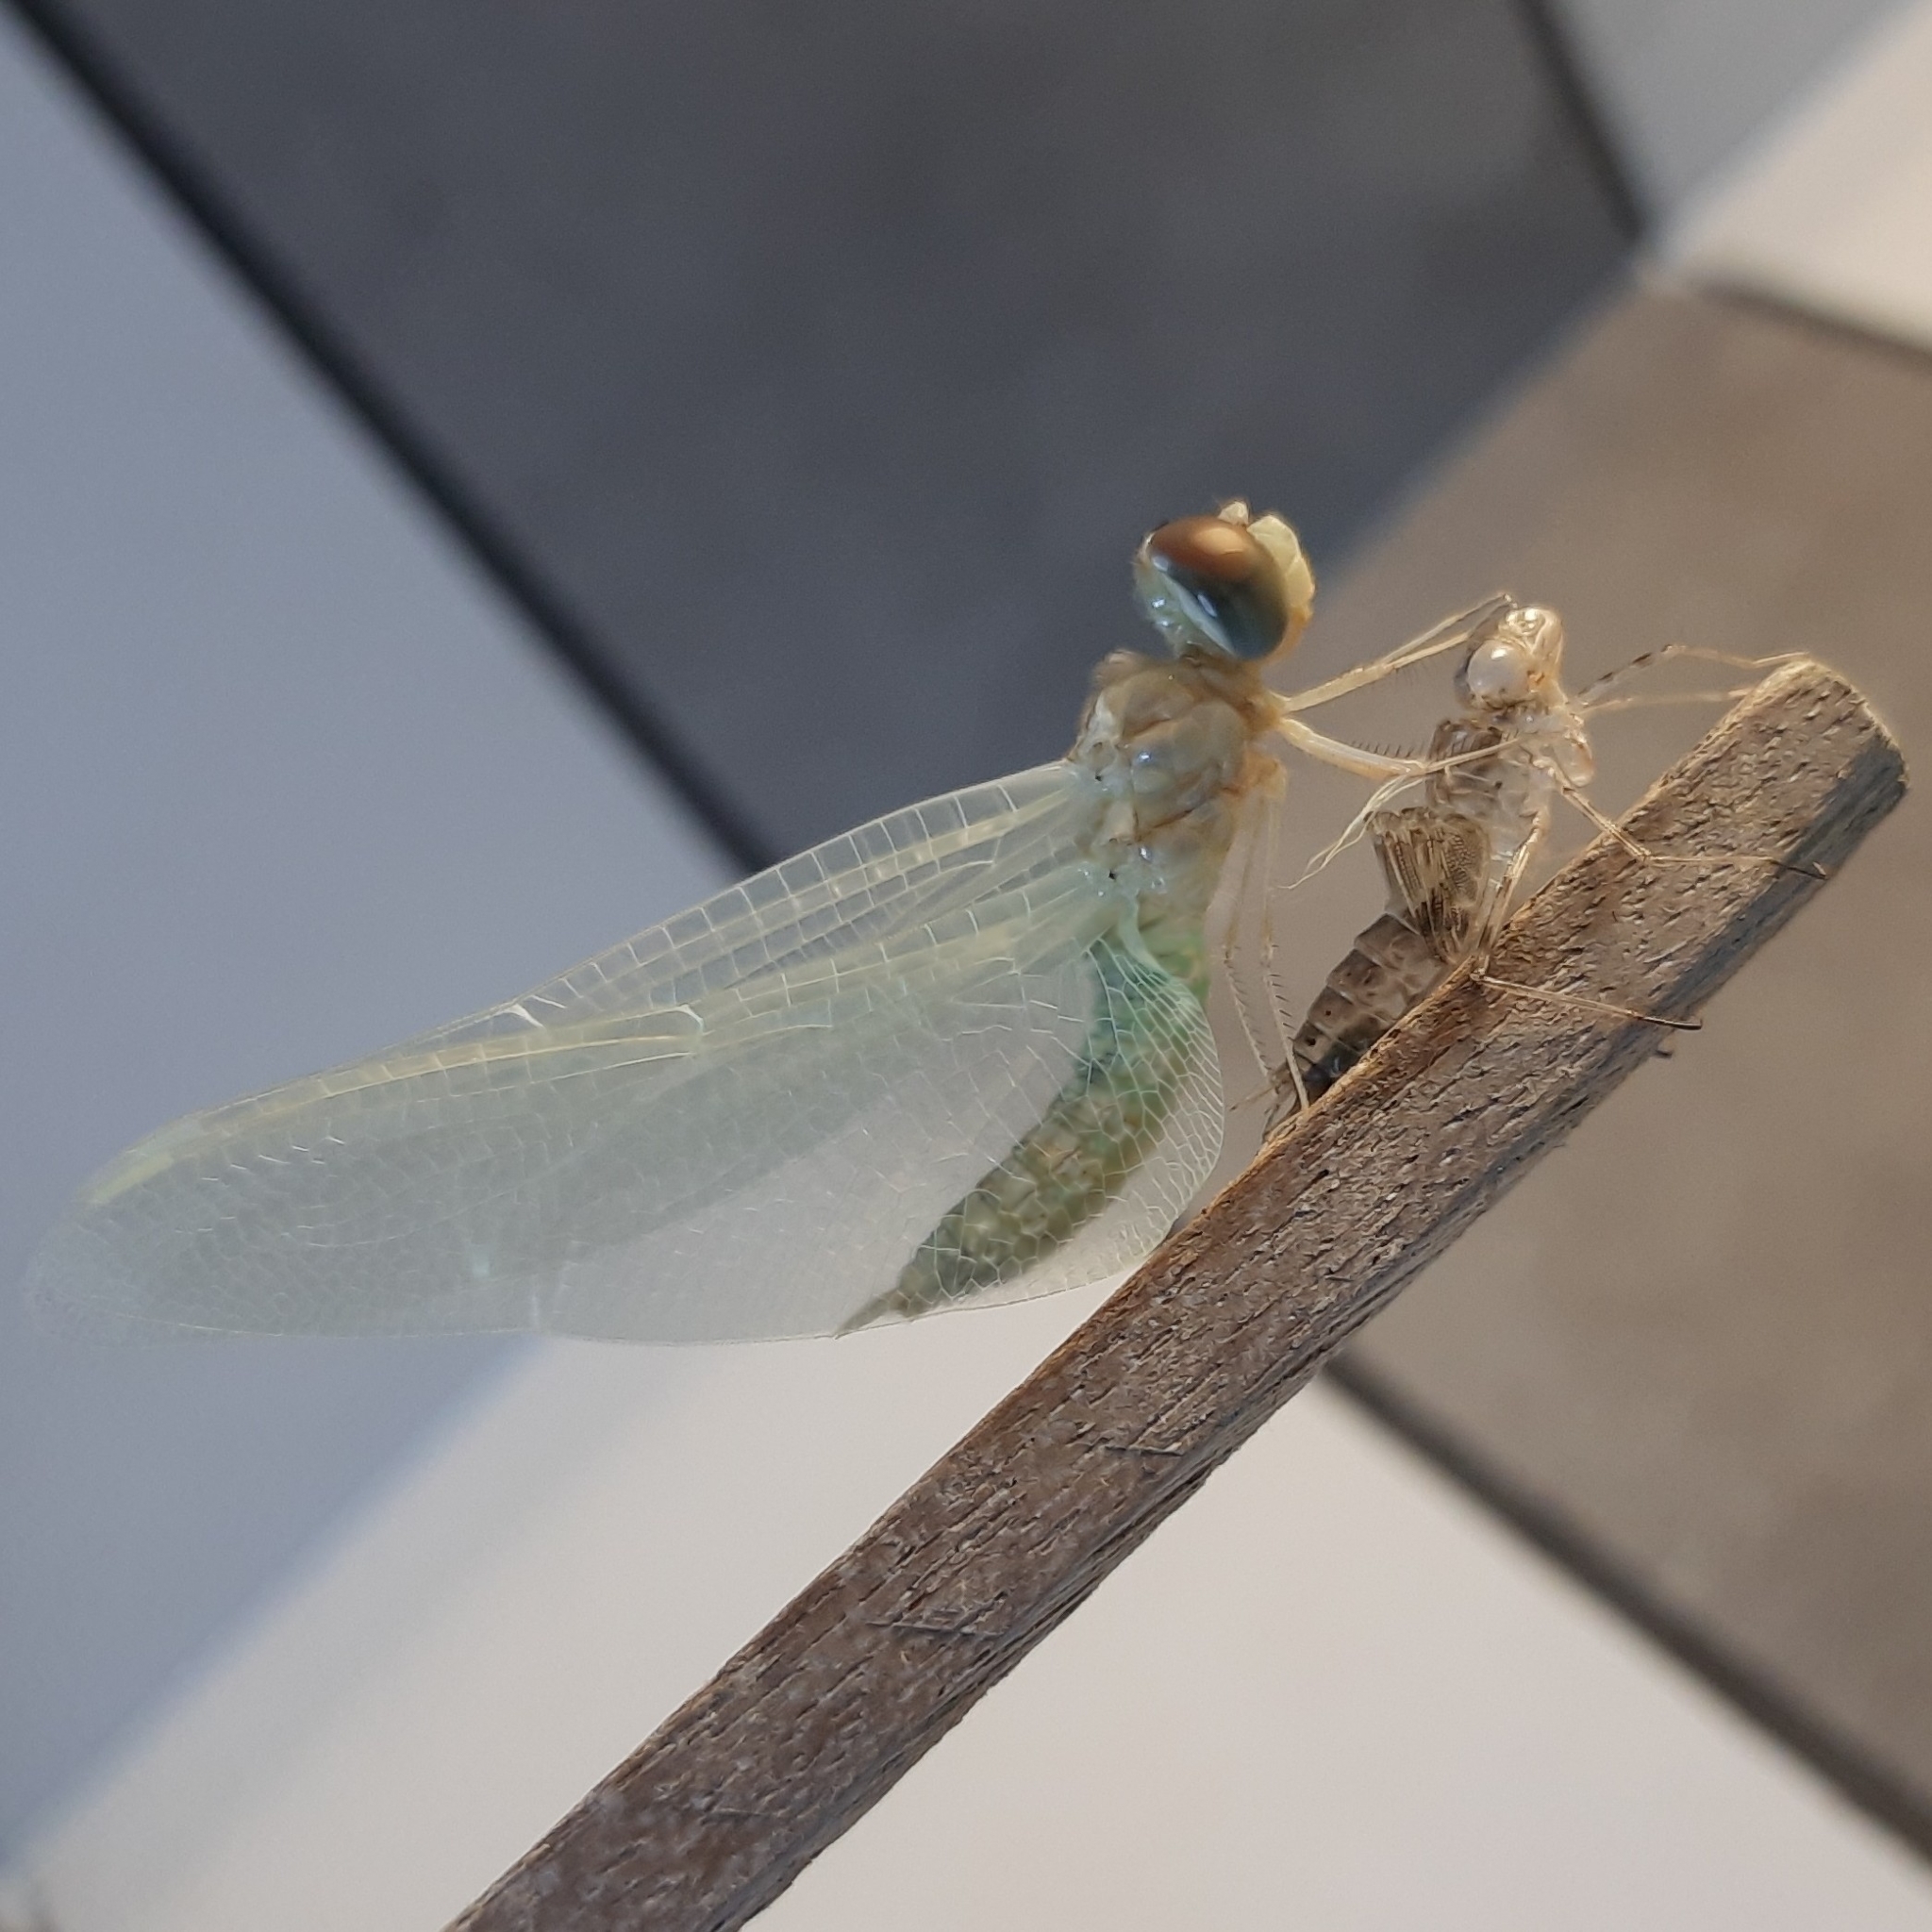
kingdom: Animalia
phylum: Arthropoda
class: Insecta
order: Odonata
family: Libellulidae
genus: Pantala
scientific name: Pantala flavescens
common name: Wandering glider
